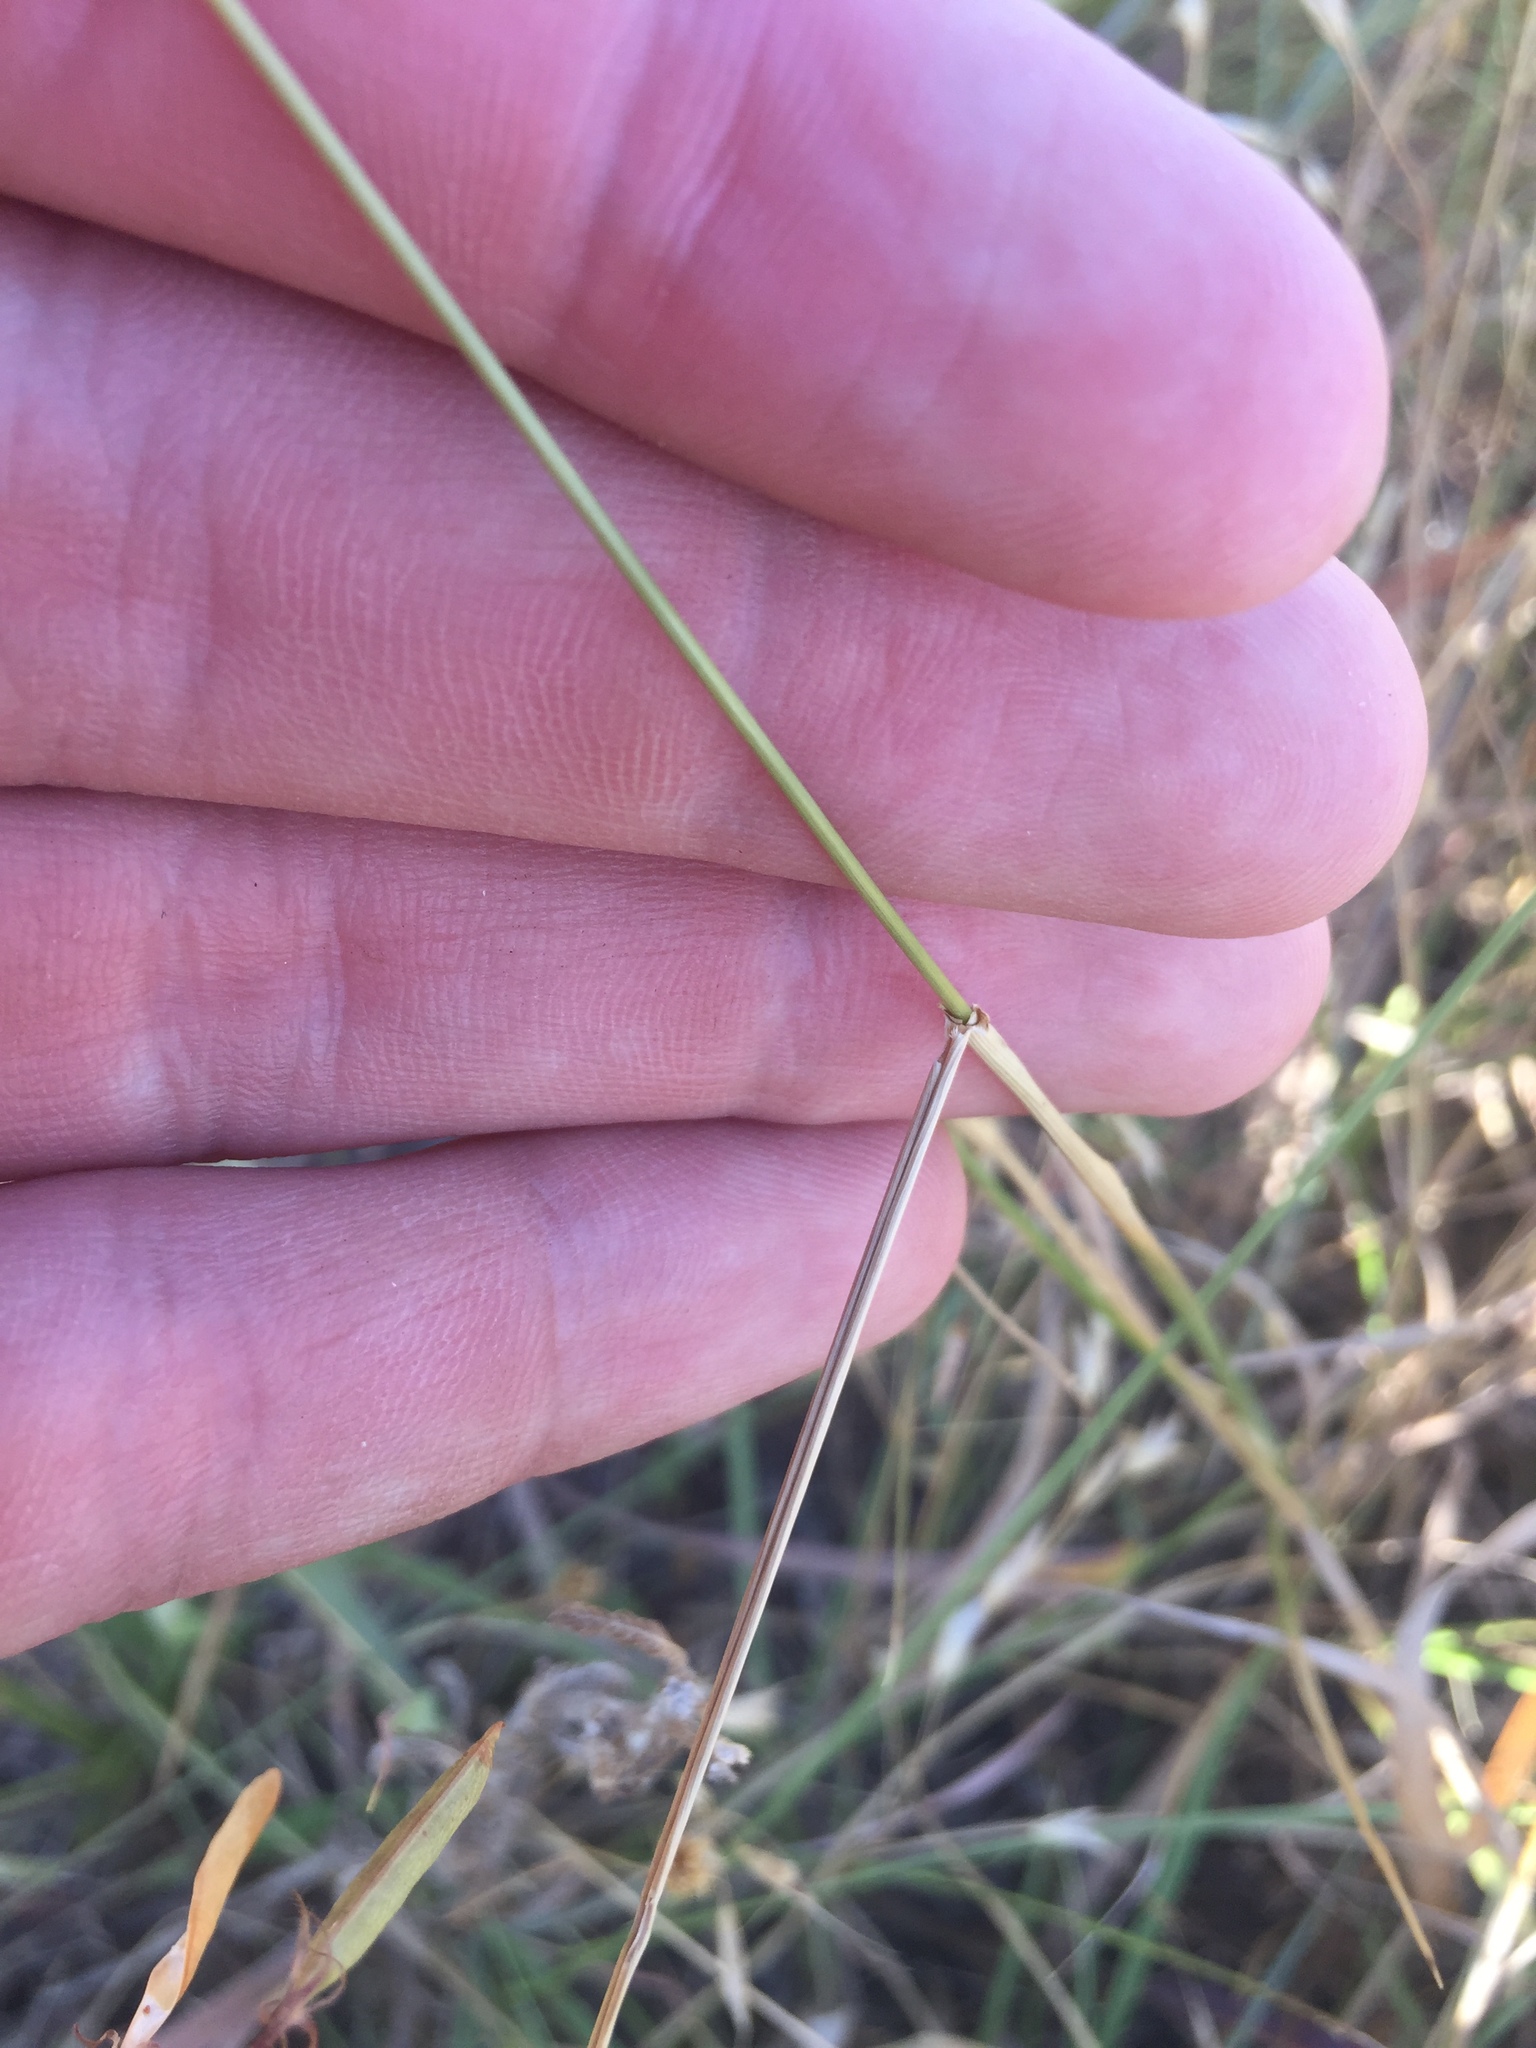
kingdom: Plantae
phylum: Tracheophyta
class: Liliopsida
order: Poales
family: Poaceae
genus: Elymus
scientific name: Elymus canadensis
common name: Canada wild rye
